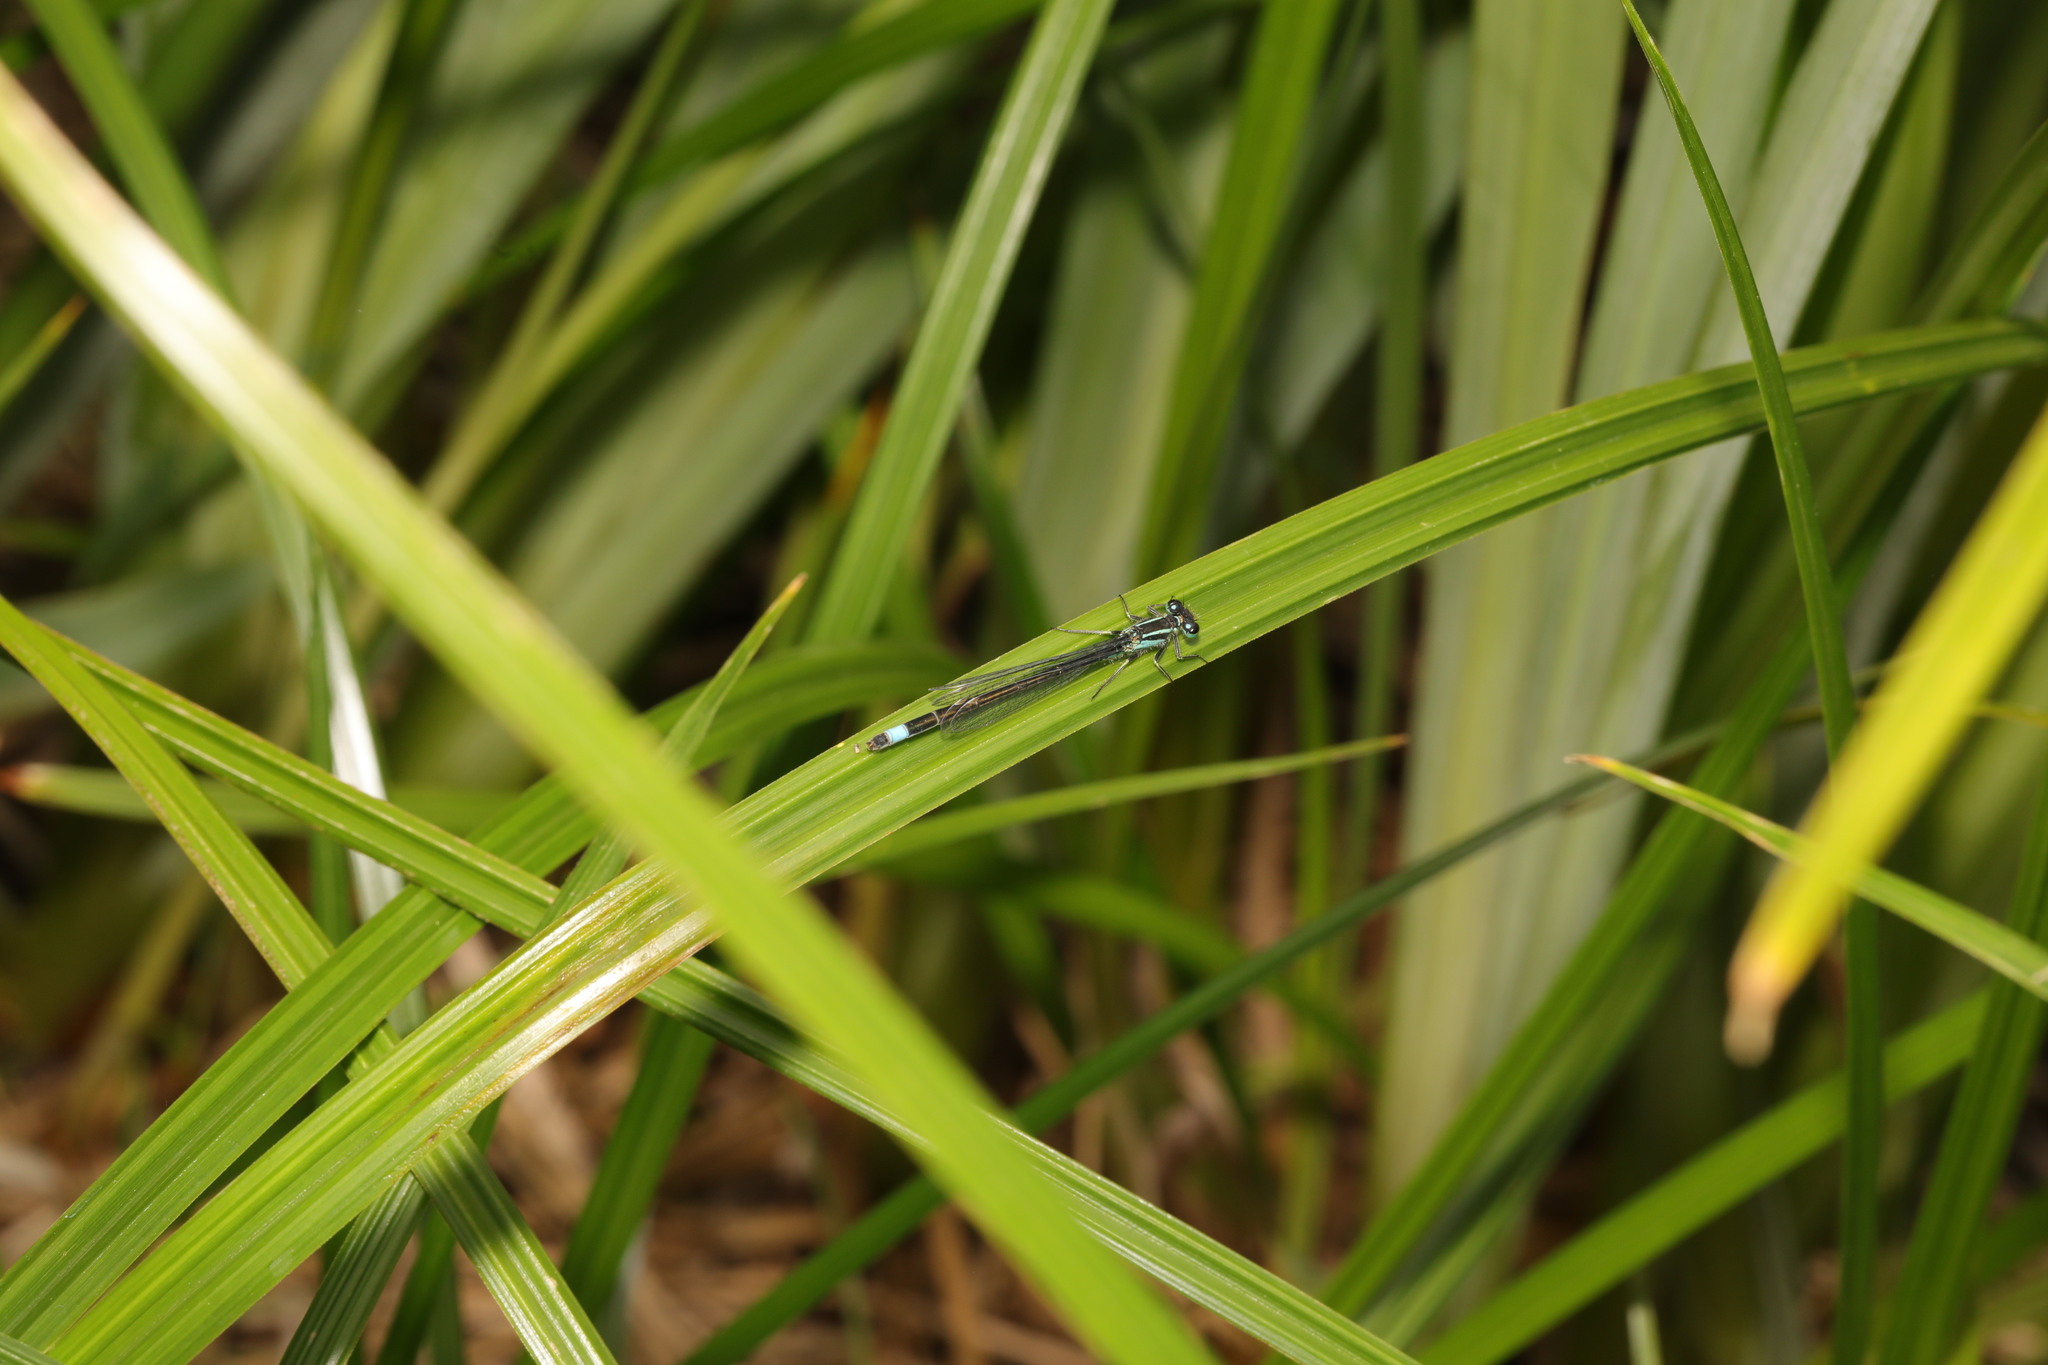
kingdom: Animalia
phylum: Arthropoda
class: Insecta
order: Odonata
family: Coenagrionidae
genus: Ischnura
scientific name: Ischnura elegans
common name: Blue-tailed damselfly
